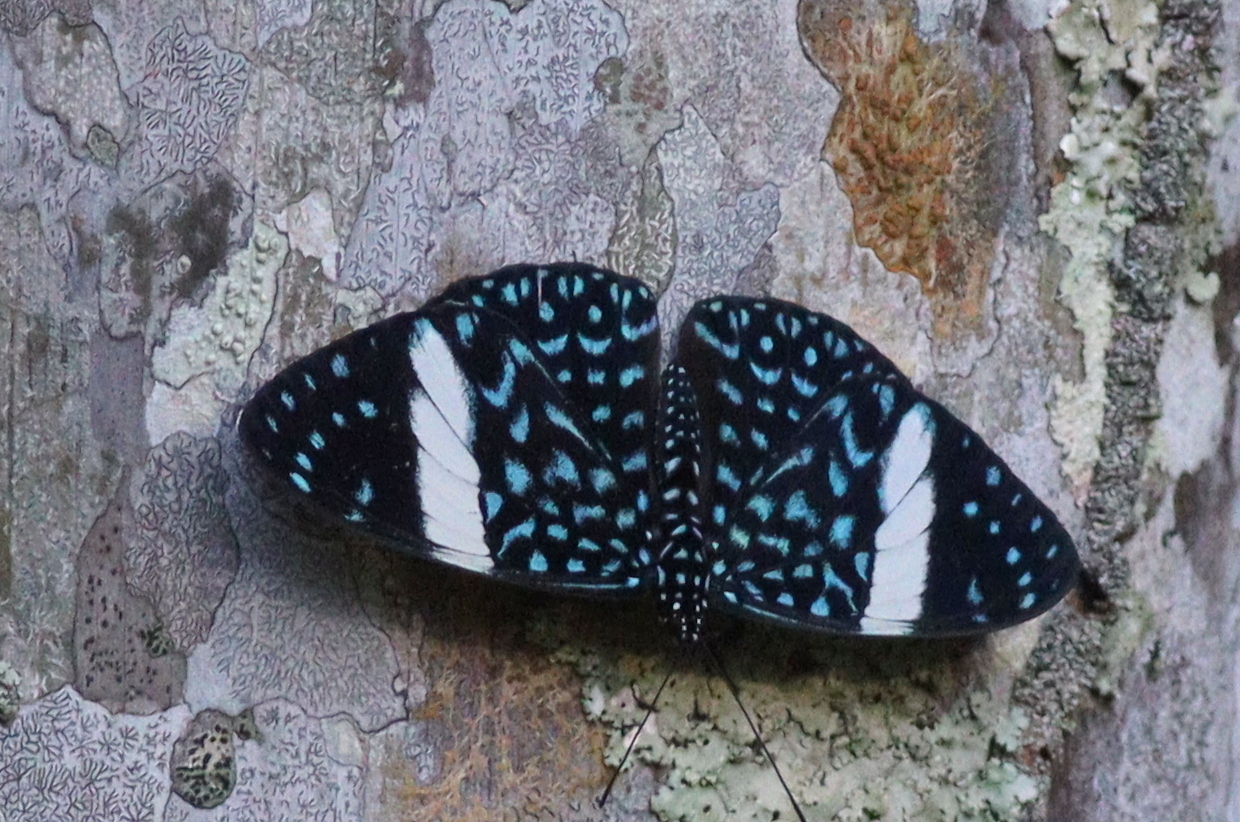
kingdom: Animalia
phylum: Arthropoda
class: Insecta
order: Lepidoptera
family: Nymphalidae
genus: Hamadryas
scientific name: Hamadryas laodamia
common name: Starry night cracker
